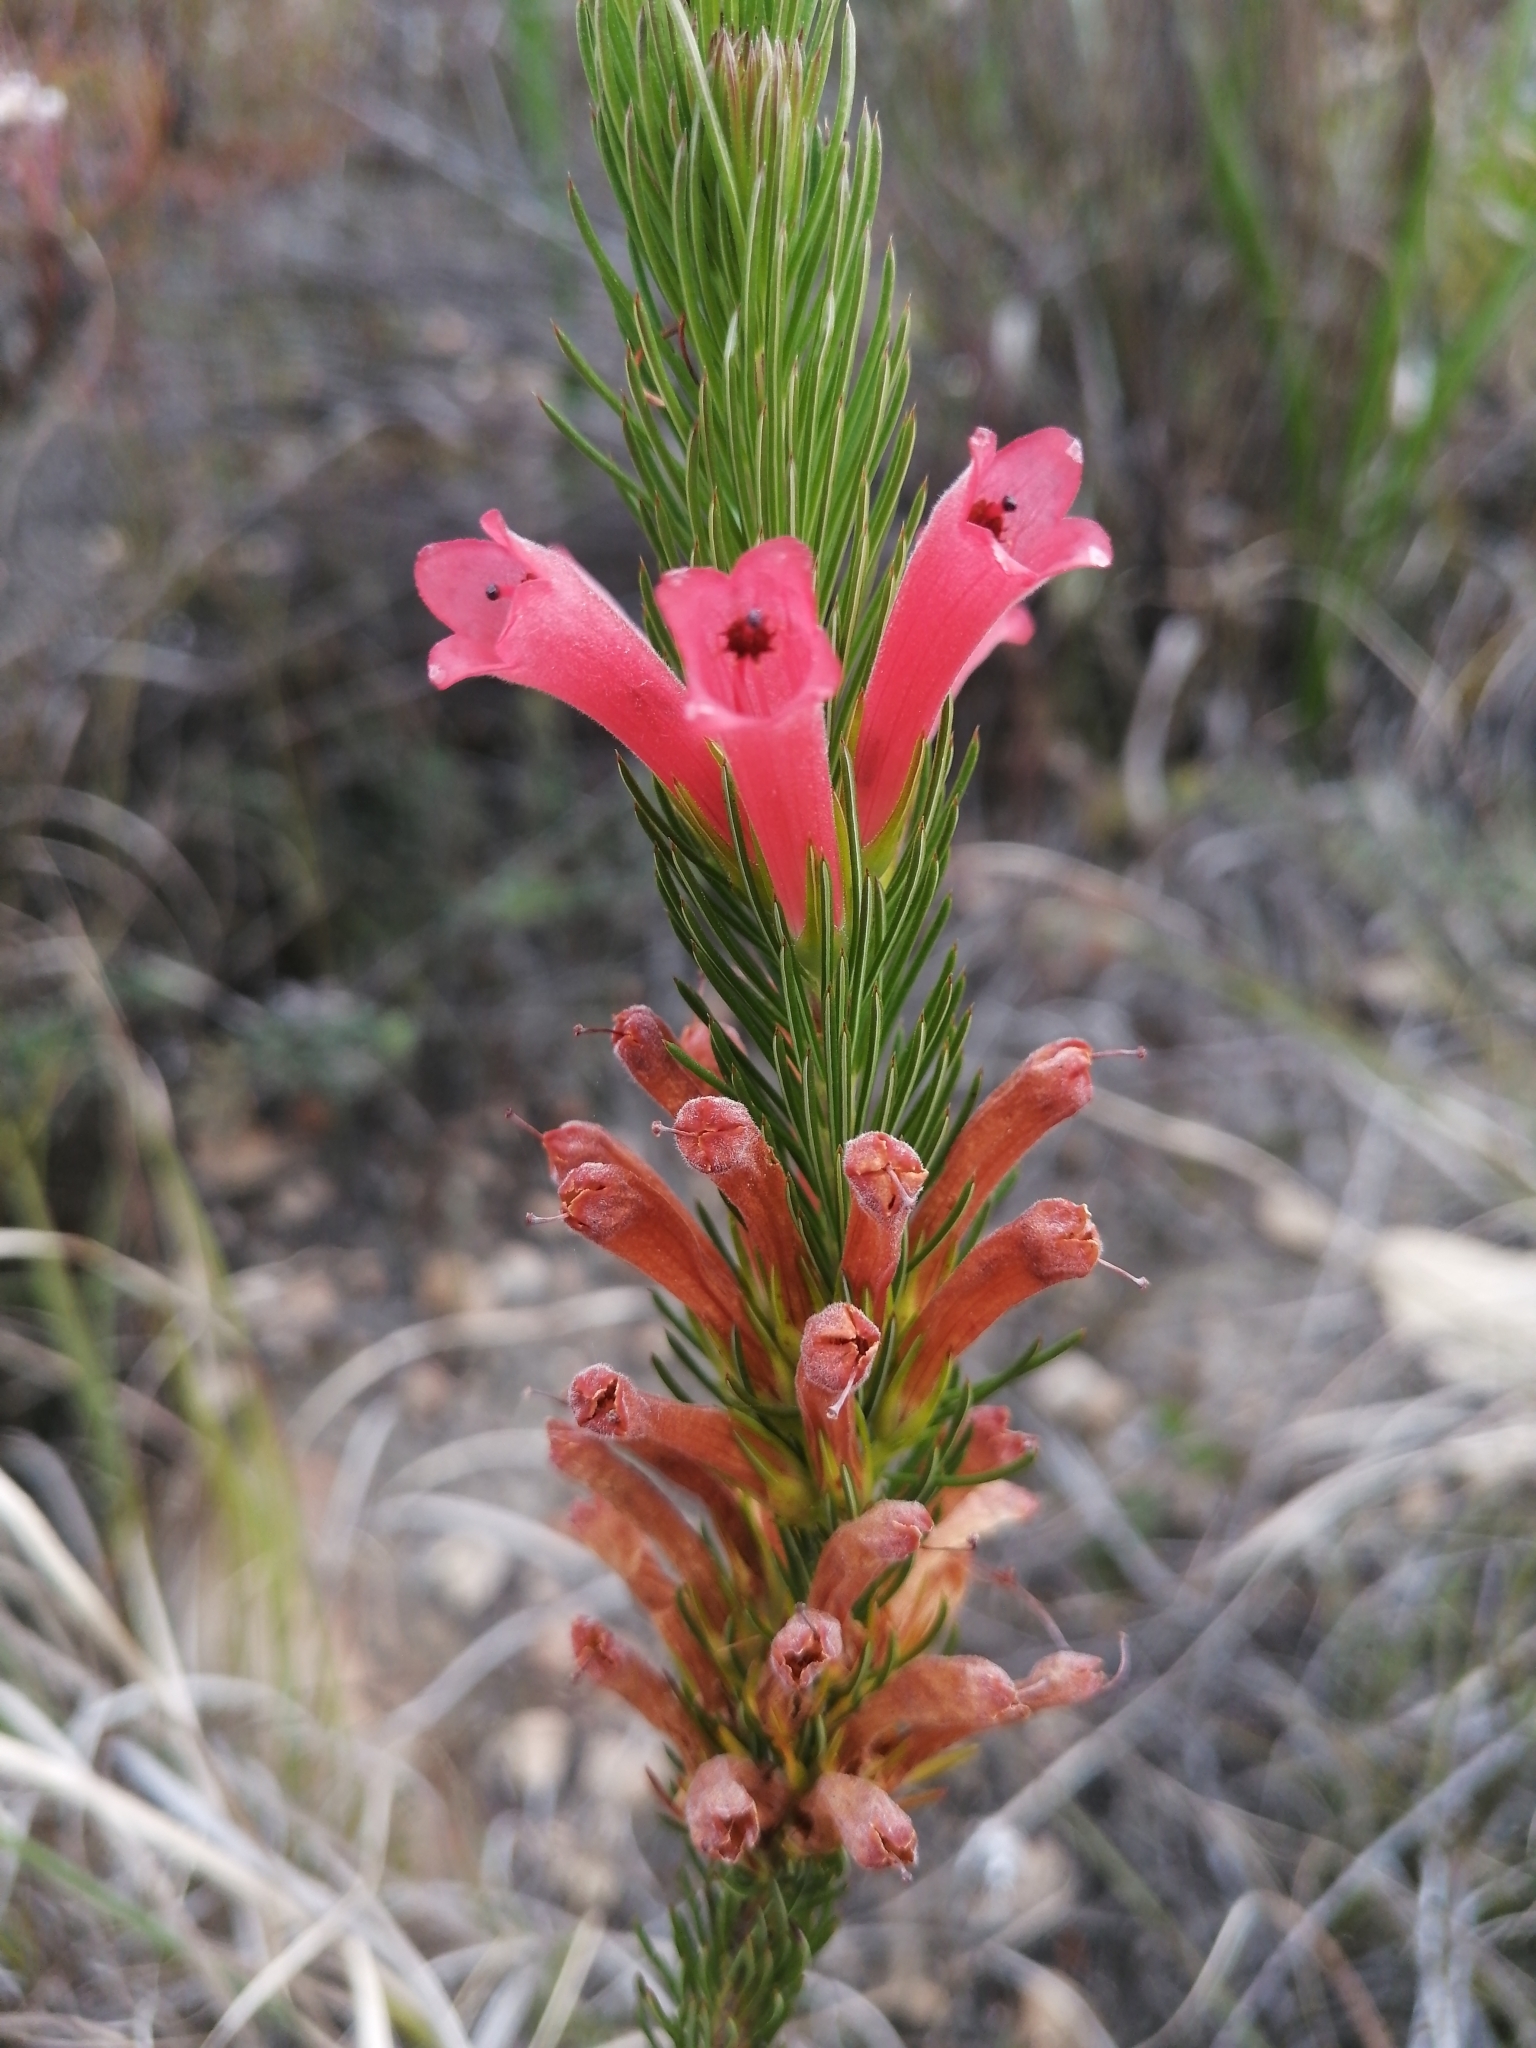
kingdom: Plantae
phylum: Tracheophyta
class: Magnoliopsida
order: Ericales
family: Ericaceae
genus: Erica
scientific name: Erica vestita
